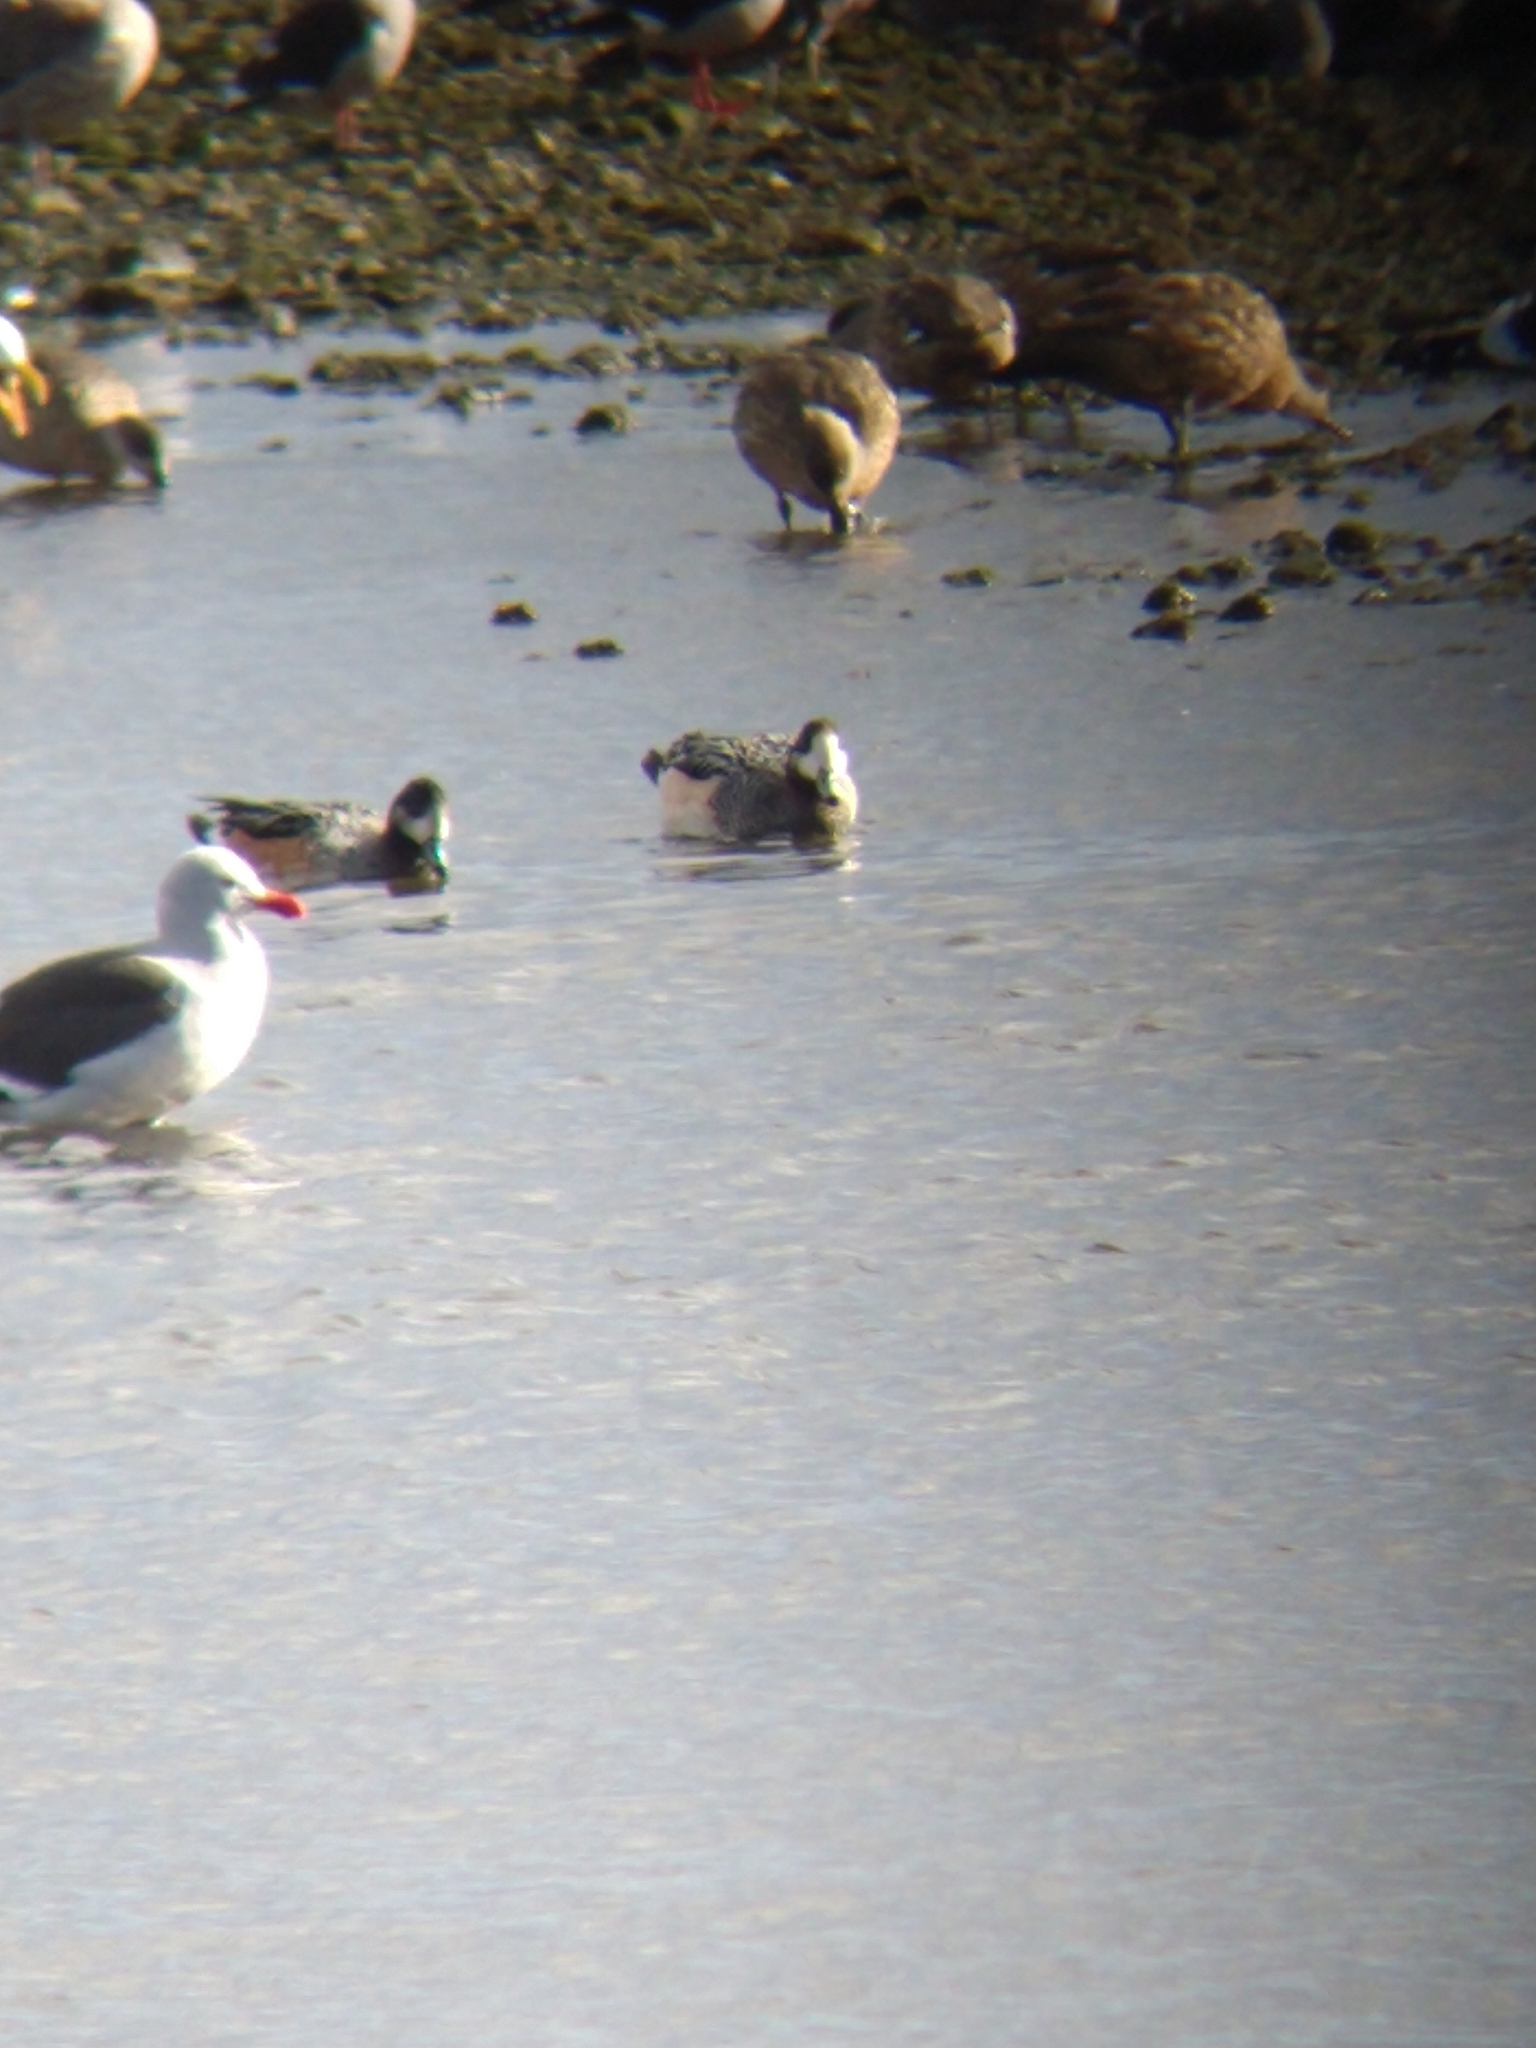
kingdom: Animalia
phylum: Chordata
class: Aves
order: Anseriformes
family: Anatidae
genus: Mareca
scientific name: Mareca sibilatrix
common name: Chiloe wigeon
